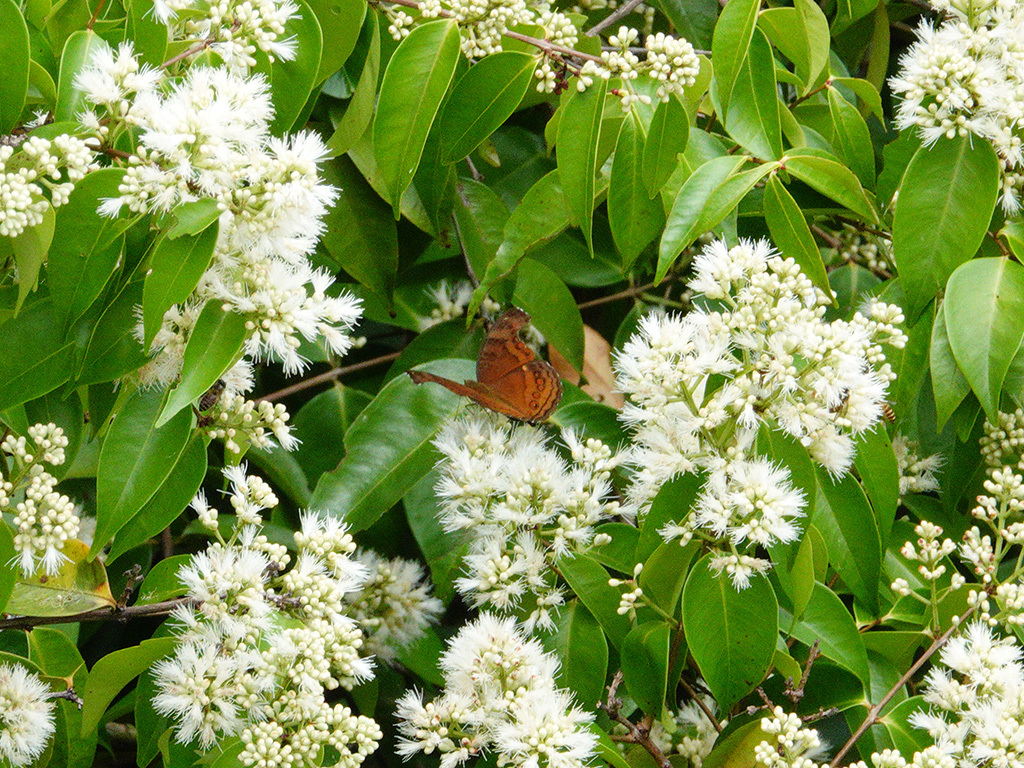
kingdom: Animalia
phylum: Arthropoda
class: Insecta
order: Lepidoptera
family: Nymphalidae
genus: Junonia
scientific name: Junonia hedonia
